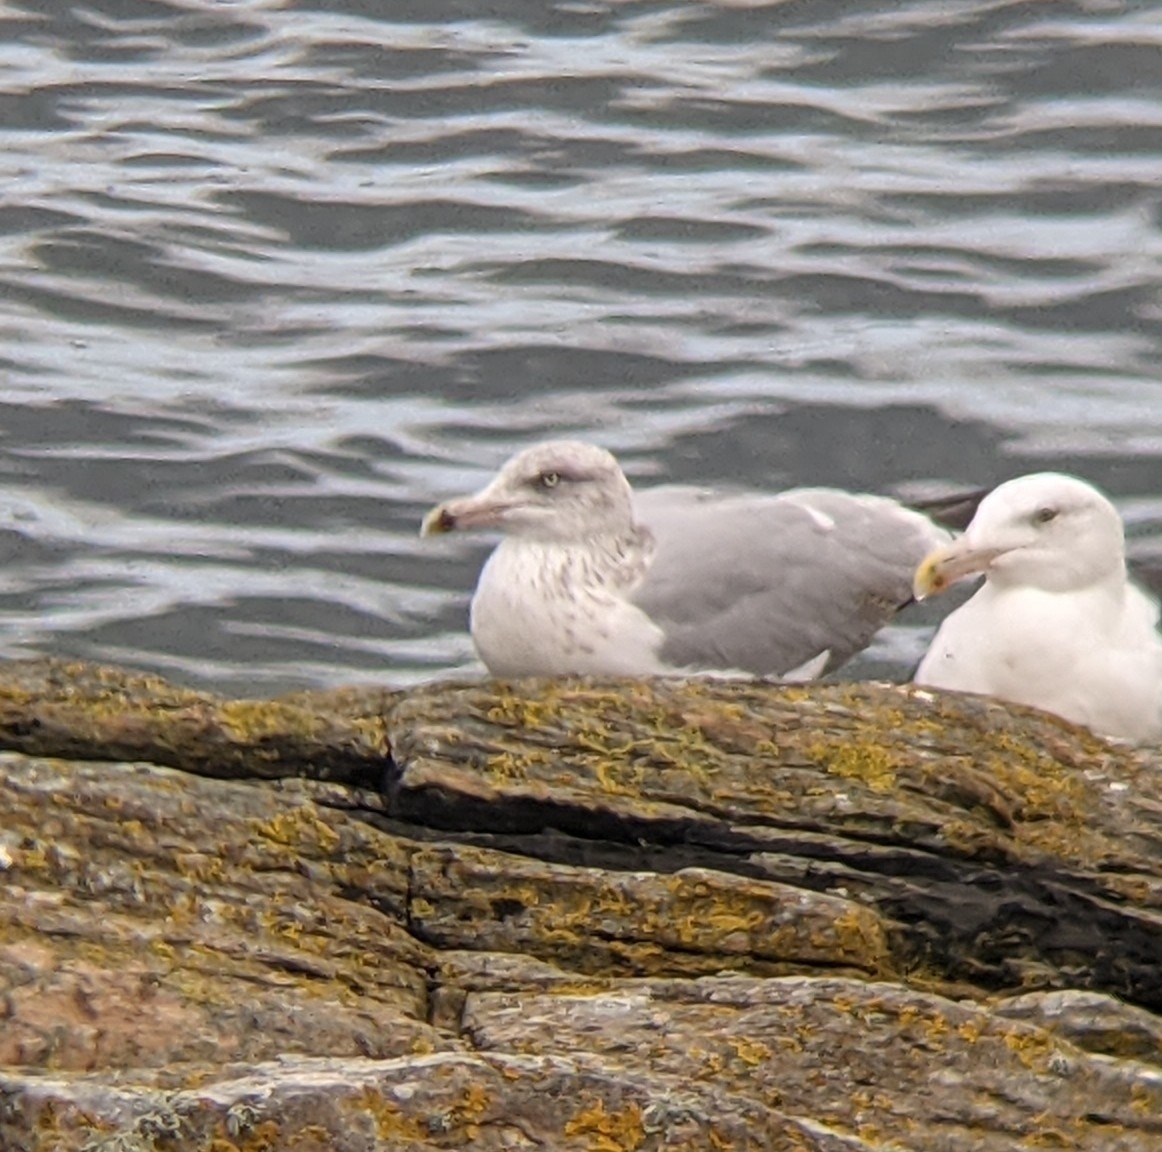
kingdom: Animalia
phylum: Chordata
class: Aves
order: Charadriiformes
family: Laridae
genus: Larus
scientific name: Larus argentatus
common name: Herring gull
